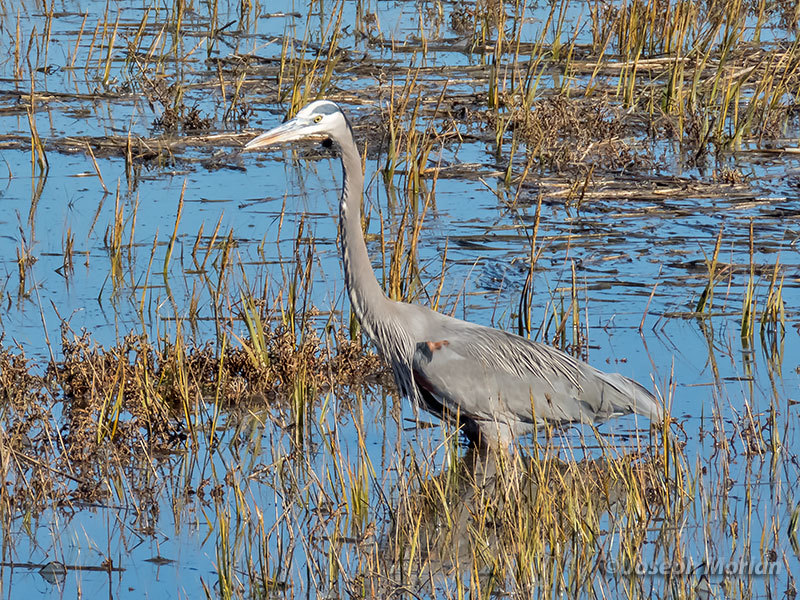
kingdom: Animalia
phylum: Chordata
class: Aves
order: Pelecaniformes
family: Ardeidae
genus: Ardea
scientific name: Ardea herodias
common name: Great blue heron
